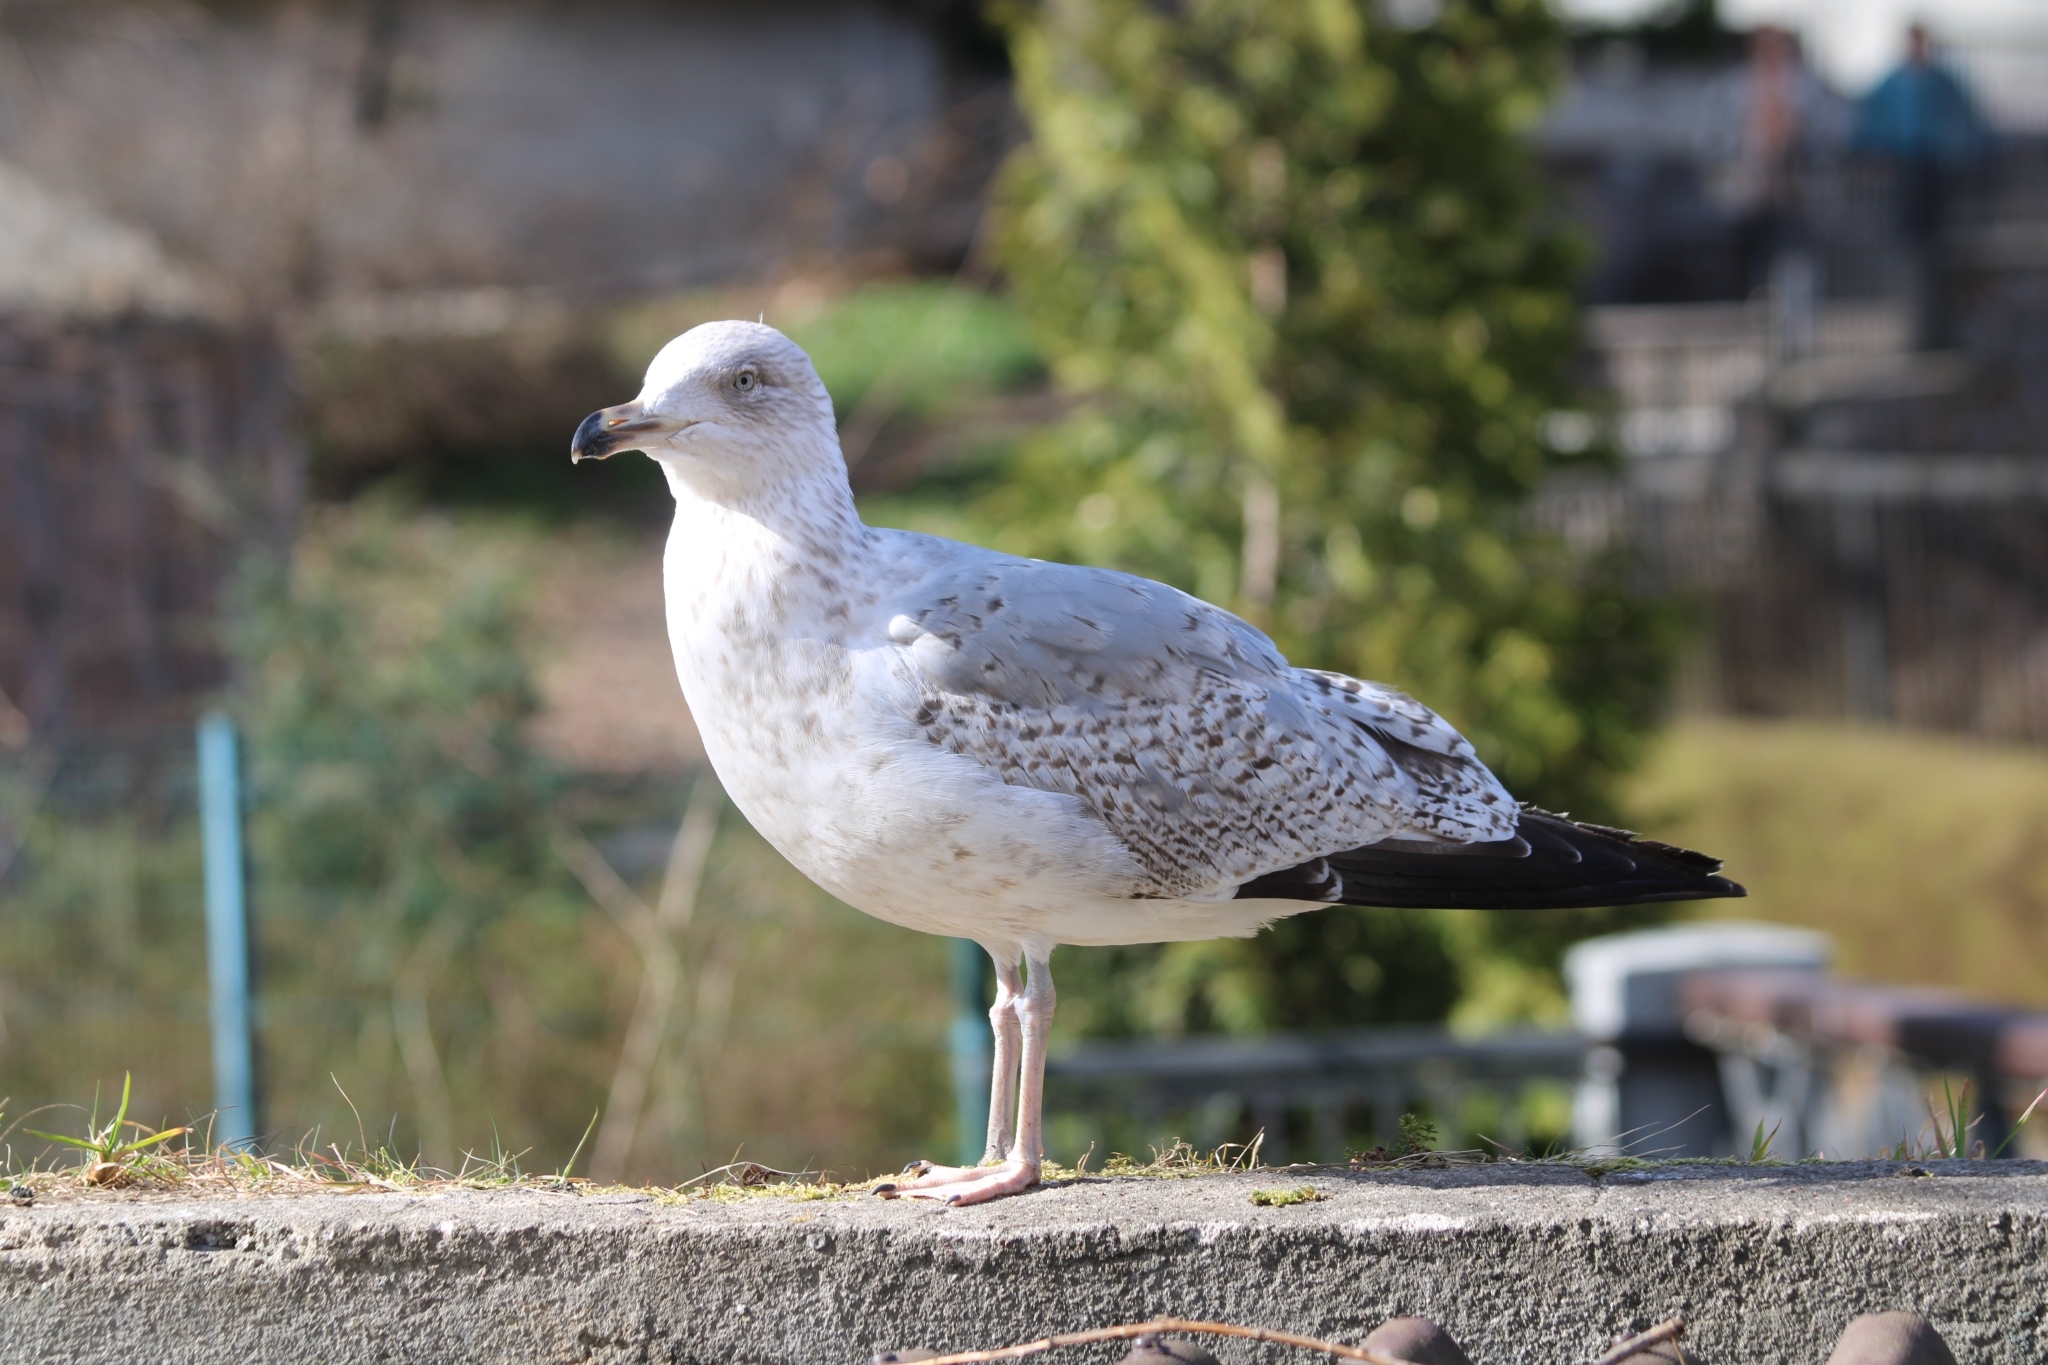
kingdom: Animalia
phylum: Chordata
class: Aves
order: Charadriiformes
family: Laridae
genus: Larus
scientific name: Larus argentatus
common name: Herring gull
